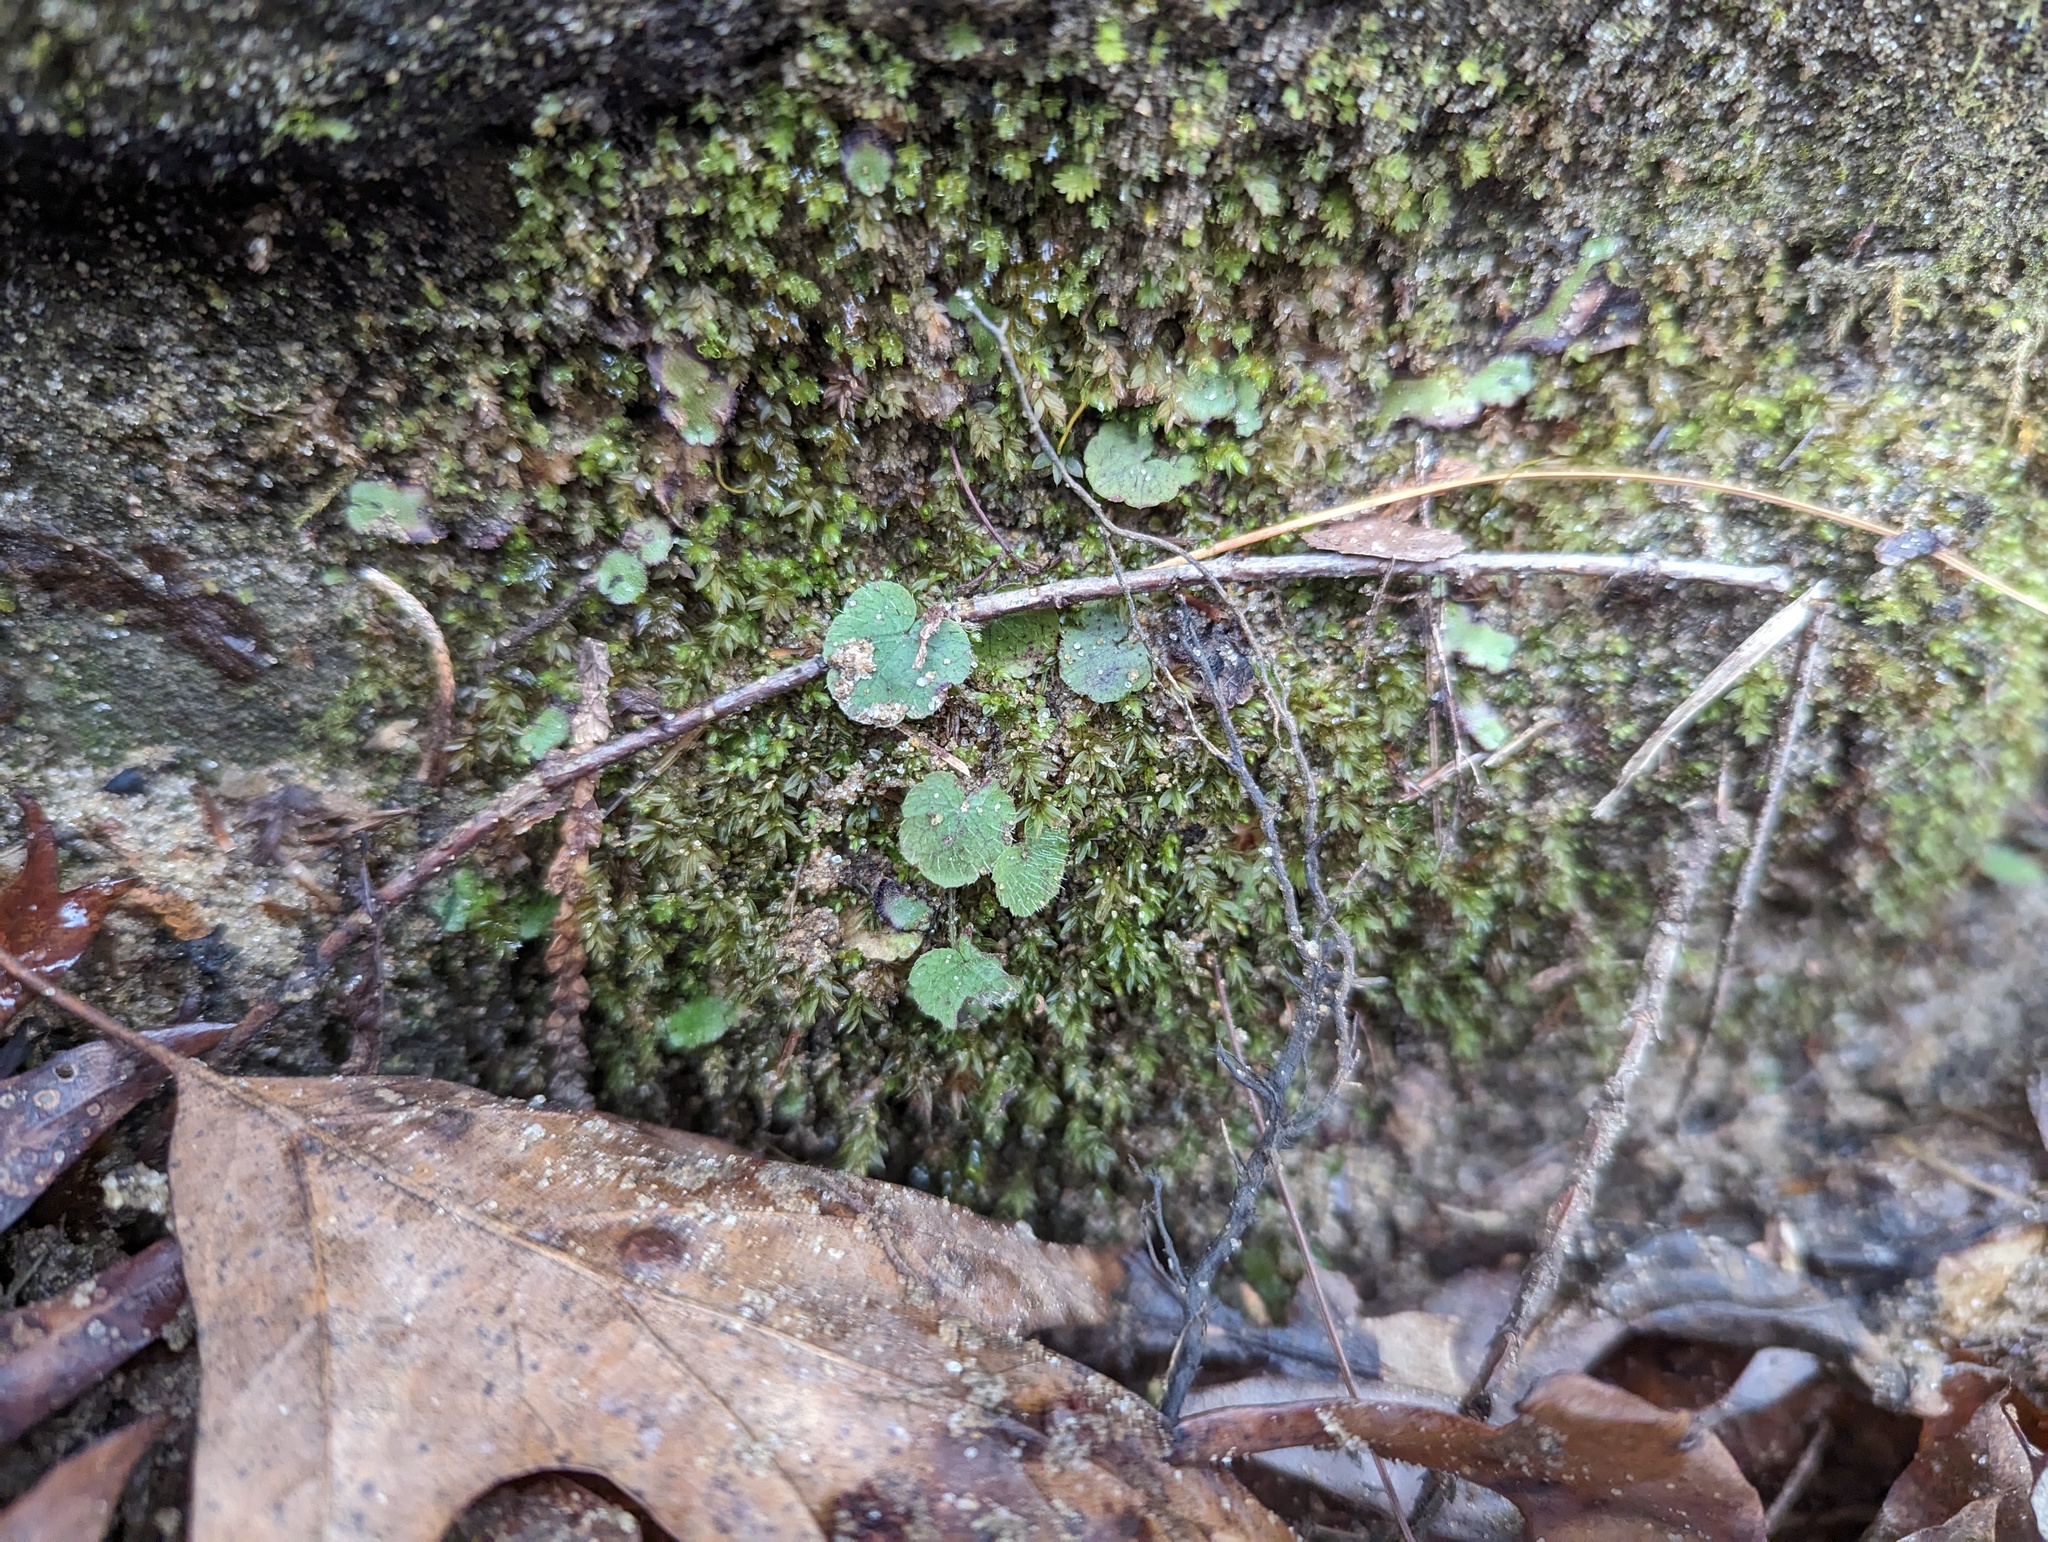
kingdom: Plantae
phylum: Tracheophyta
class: Magnoliopsida
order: Saxifragales
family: Saxifragaceae
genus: Mitella
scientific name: Mitella diphylla
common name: Coolwort
